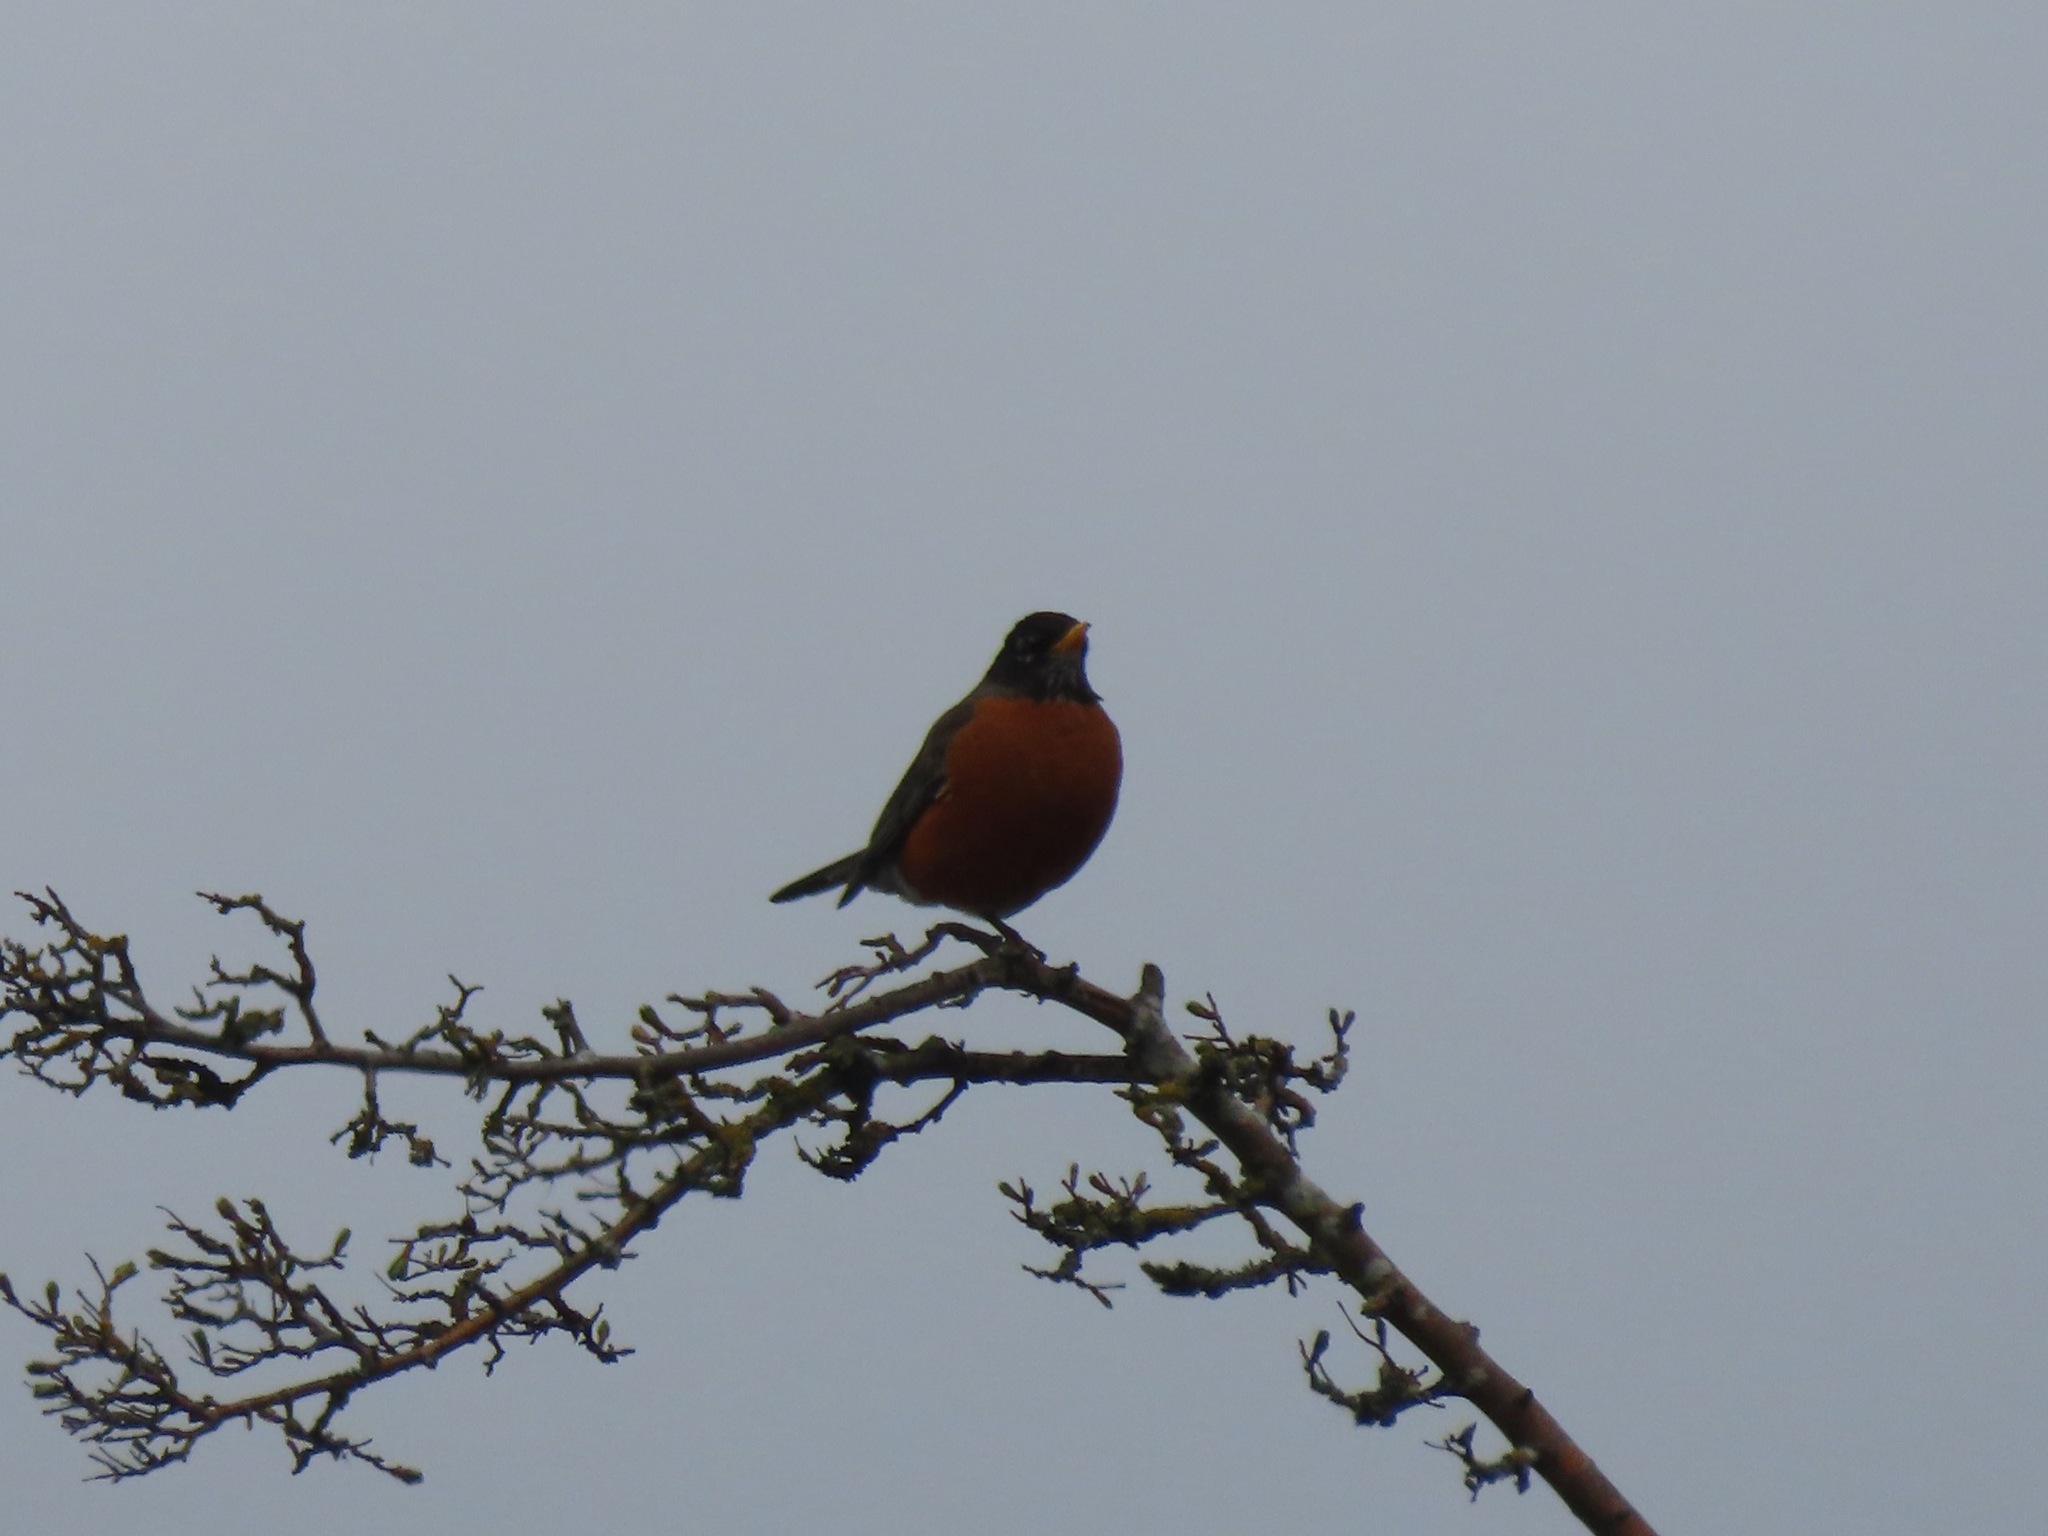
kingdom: Animalia
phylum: Chordata
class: Aves
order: Passeriformes
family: Turdidae
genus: Turdus
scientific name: Turdus migratorius
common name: American robin
